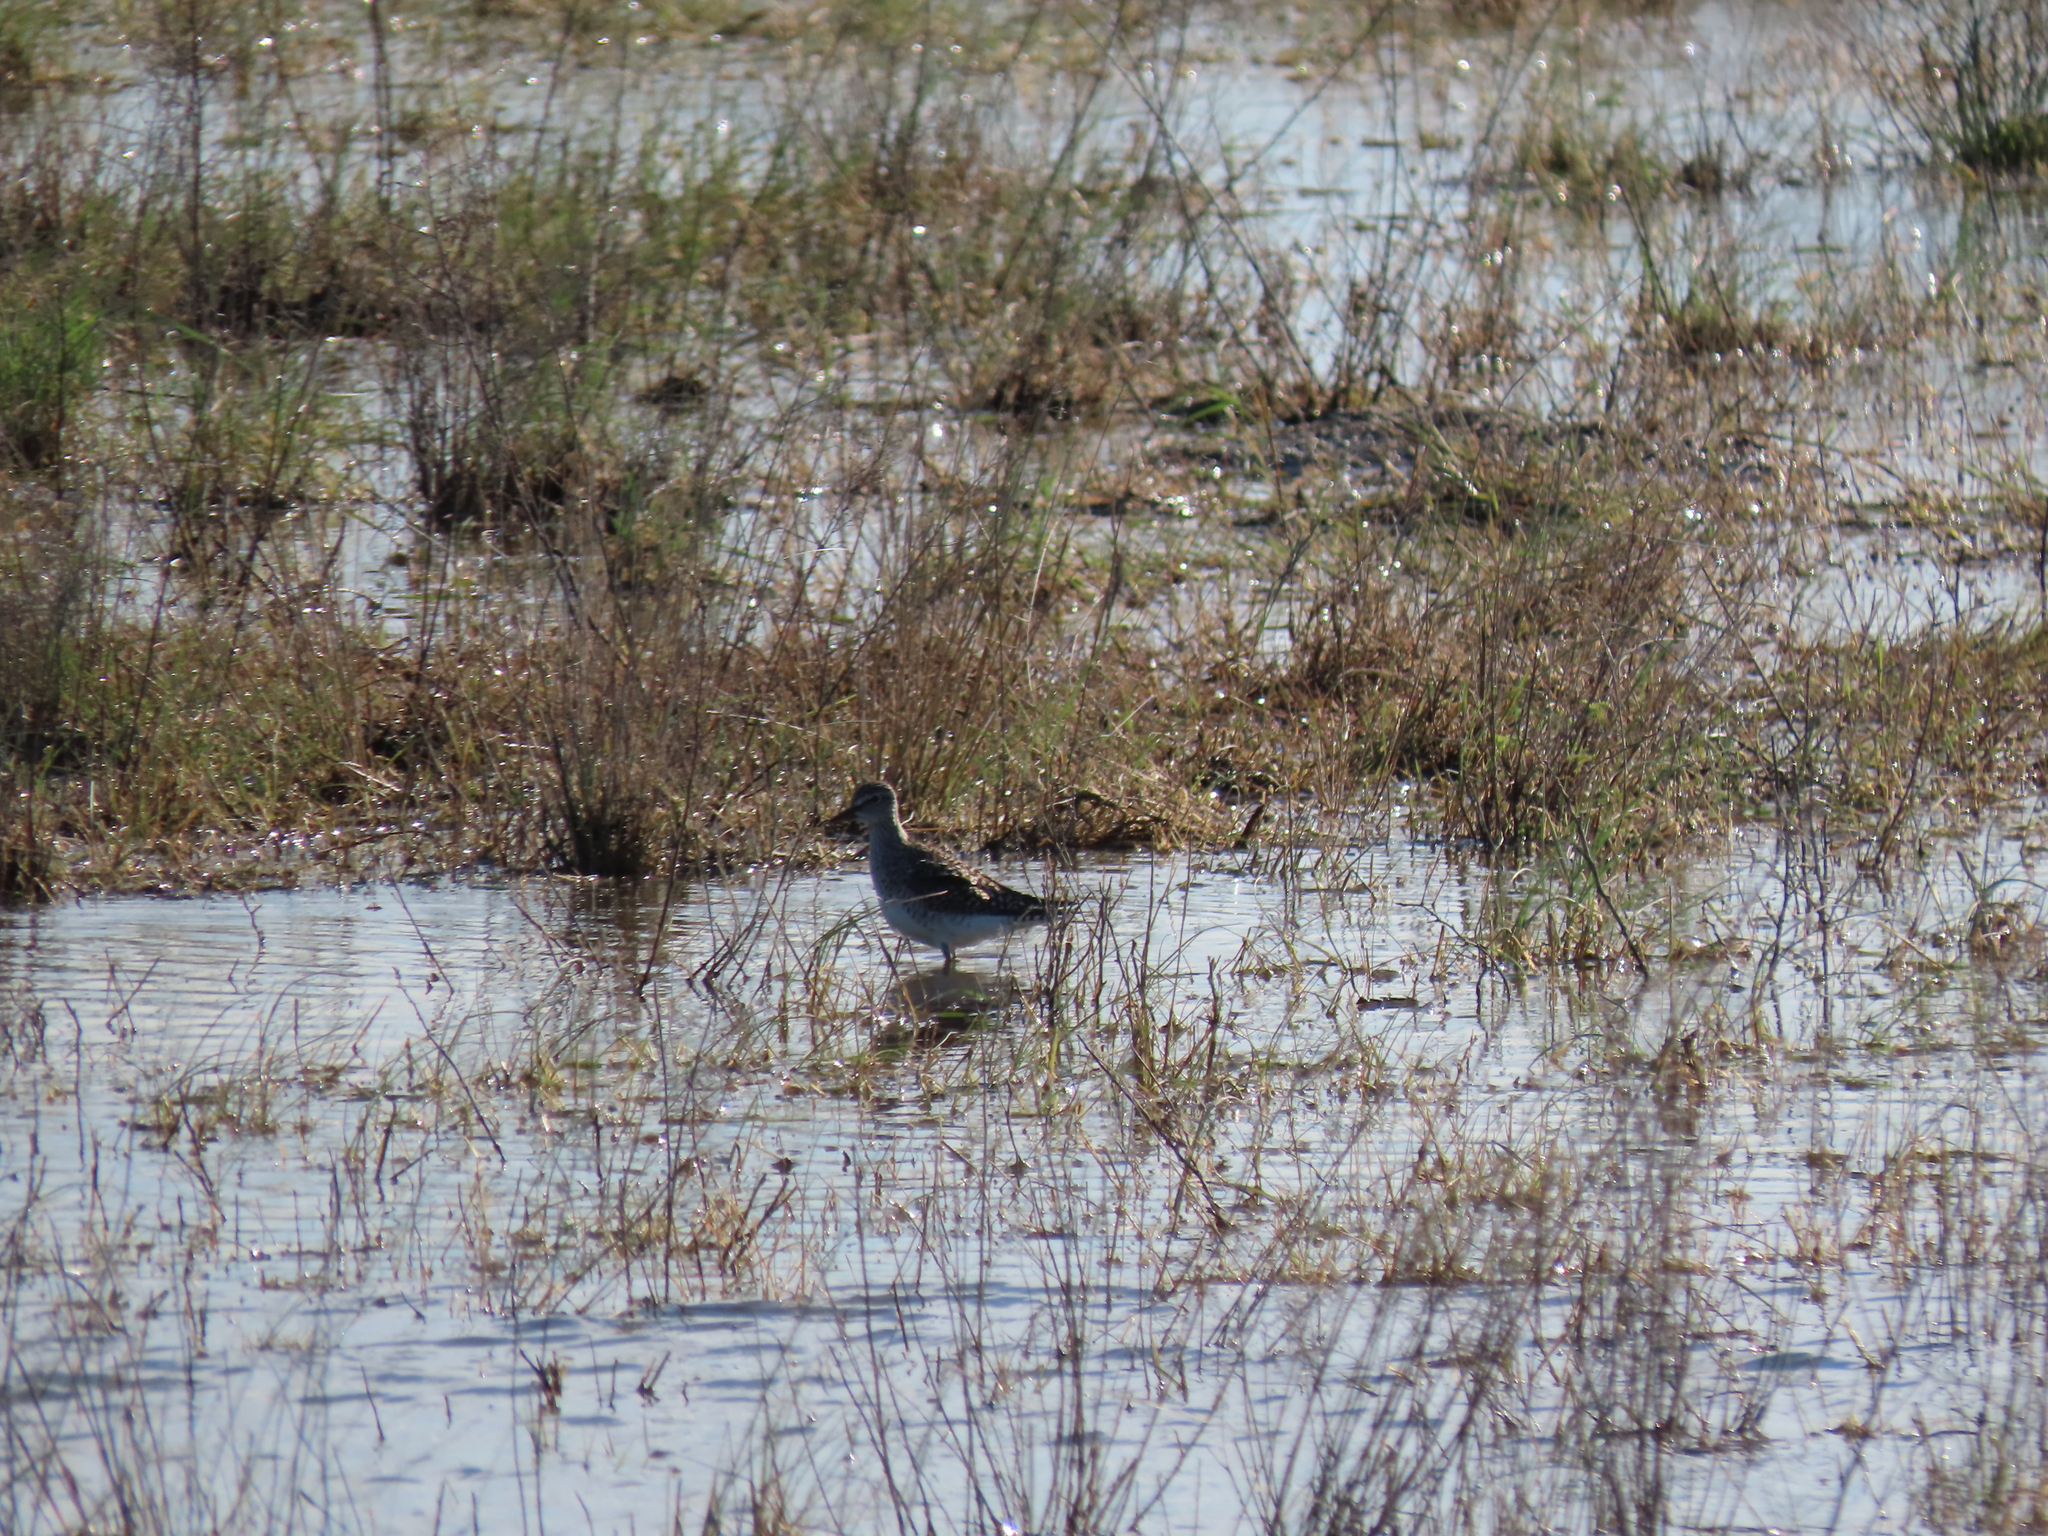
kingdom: Animalia
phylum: Chordata
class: Aves
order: Charadriiformes
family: Scolopacidae
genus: Tringa
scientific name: Tringa glareola
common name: Wood sandpiper
